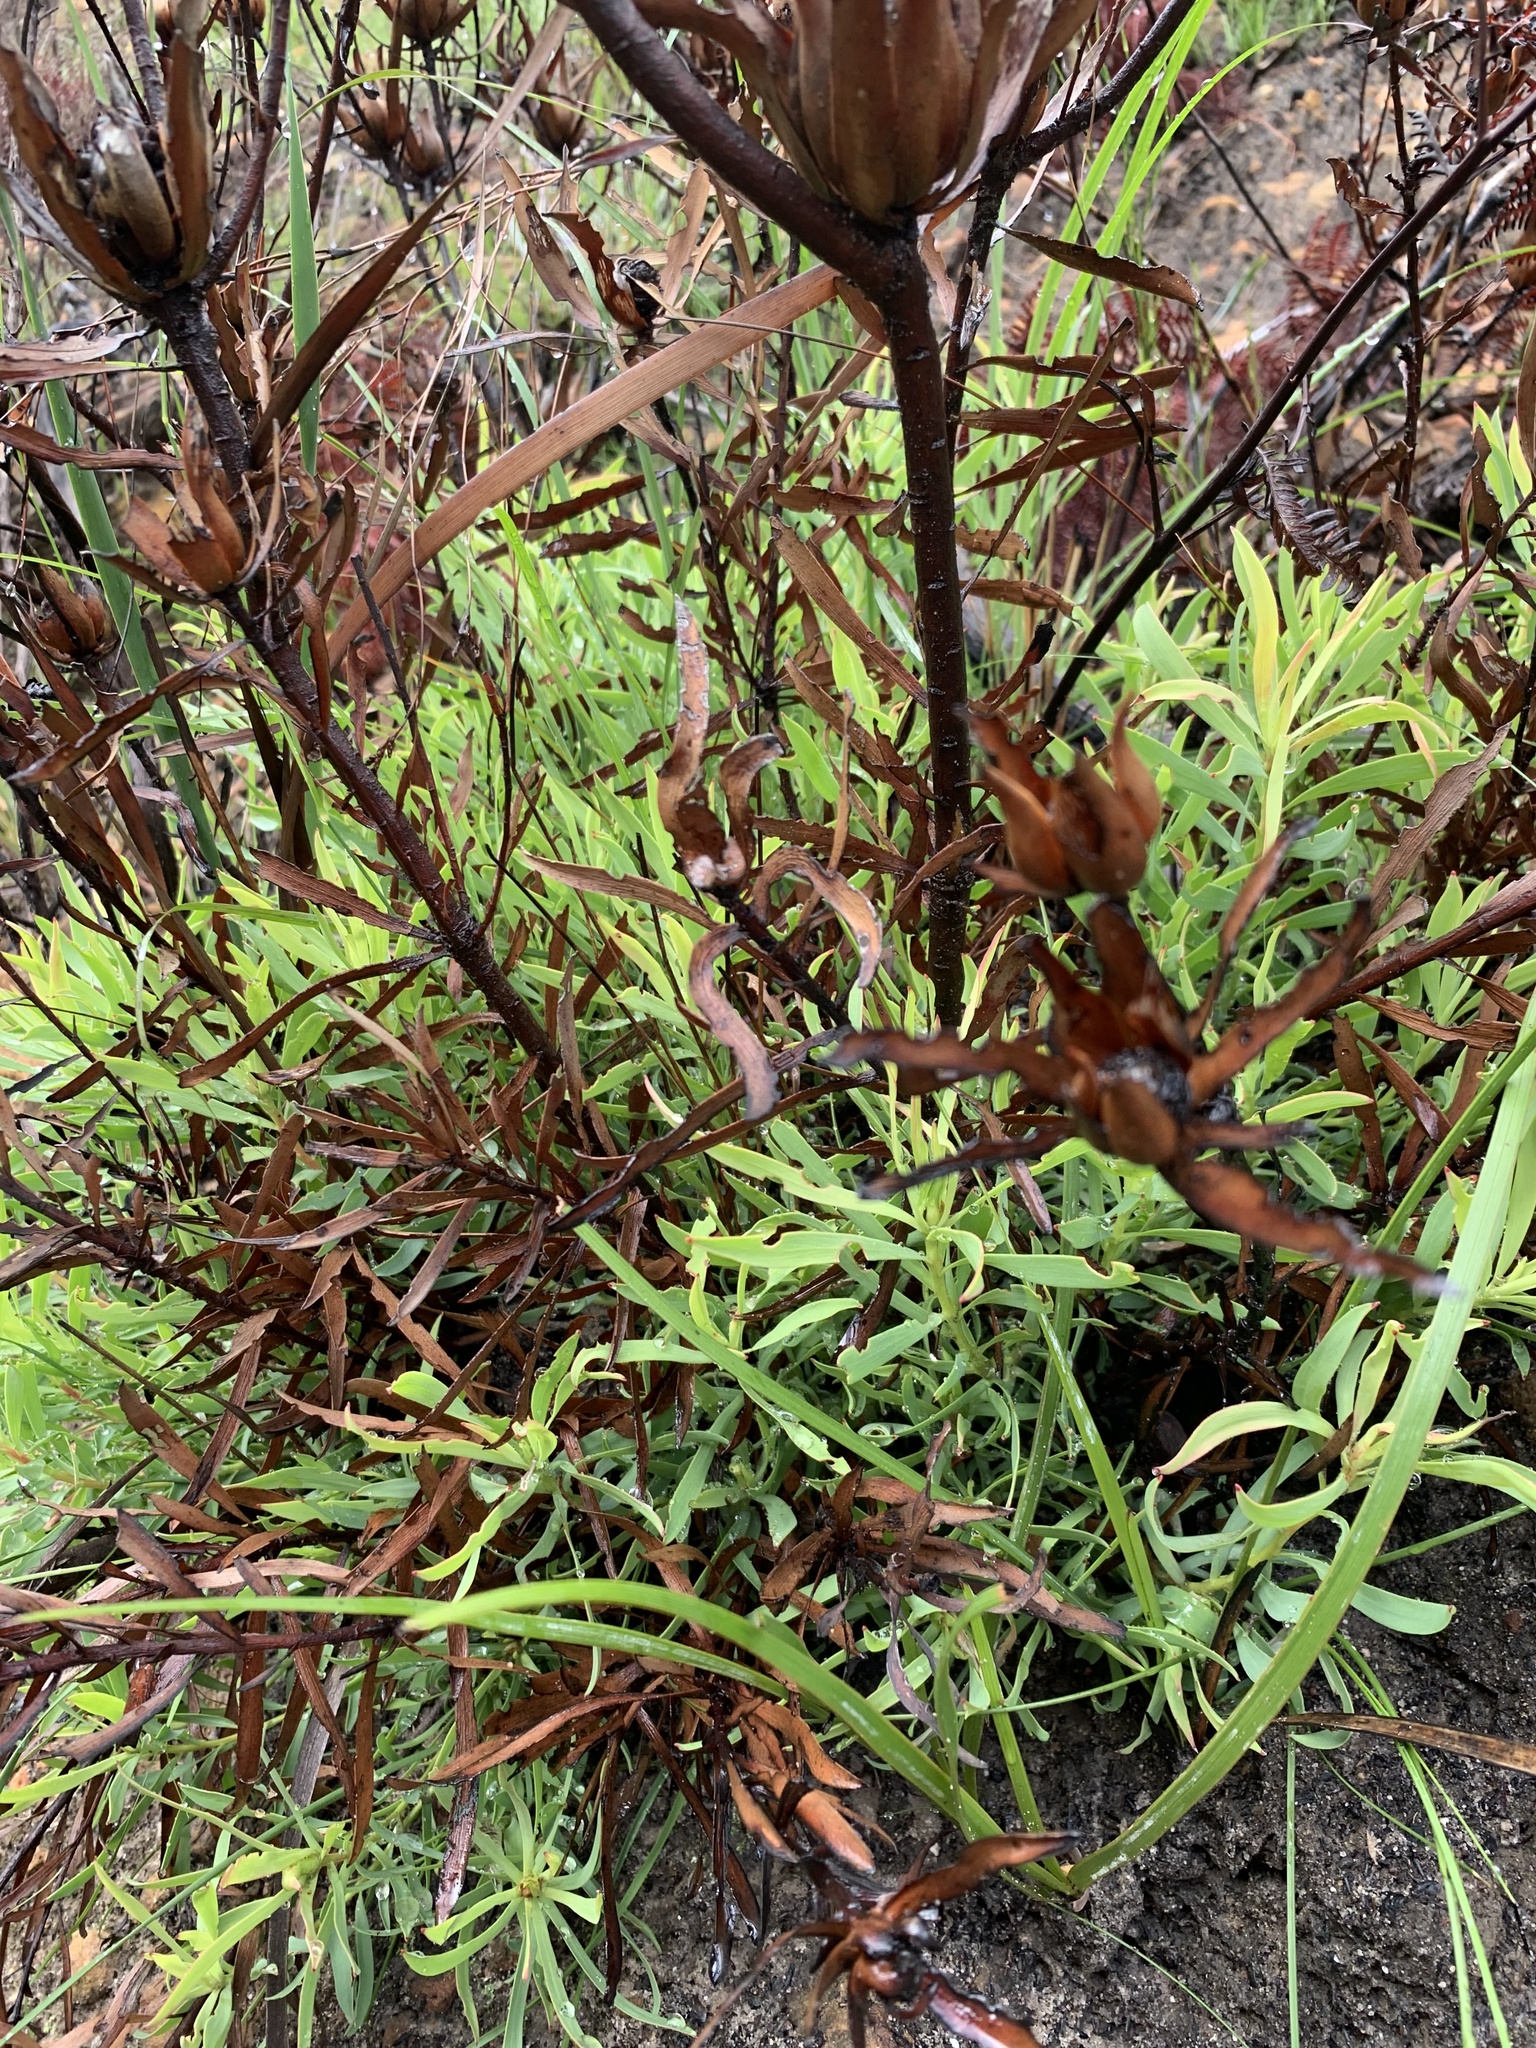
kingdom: Plantae
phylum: Tracheophyta
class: Magnoliopsida
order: Proteales
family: Proteaceae
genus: Leucadendron
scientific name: Leucadendron salignum
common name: Common sunshine conebush
